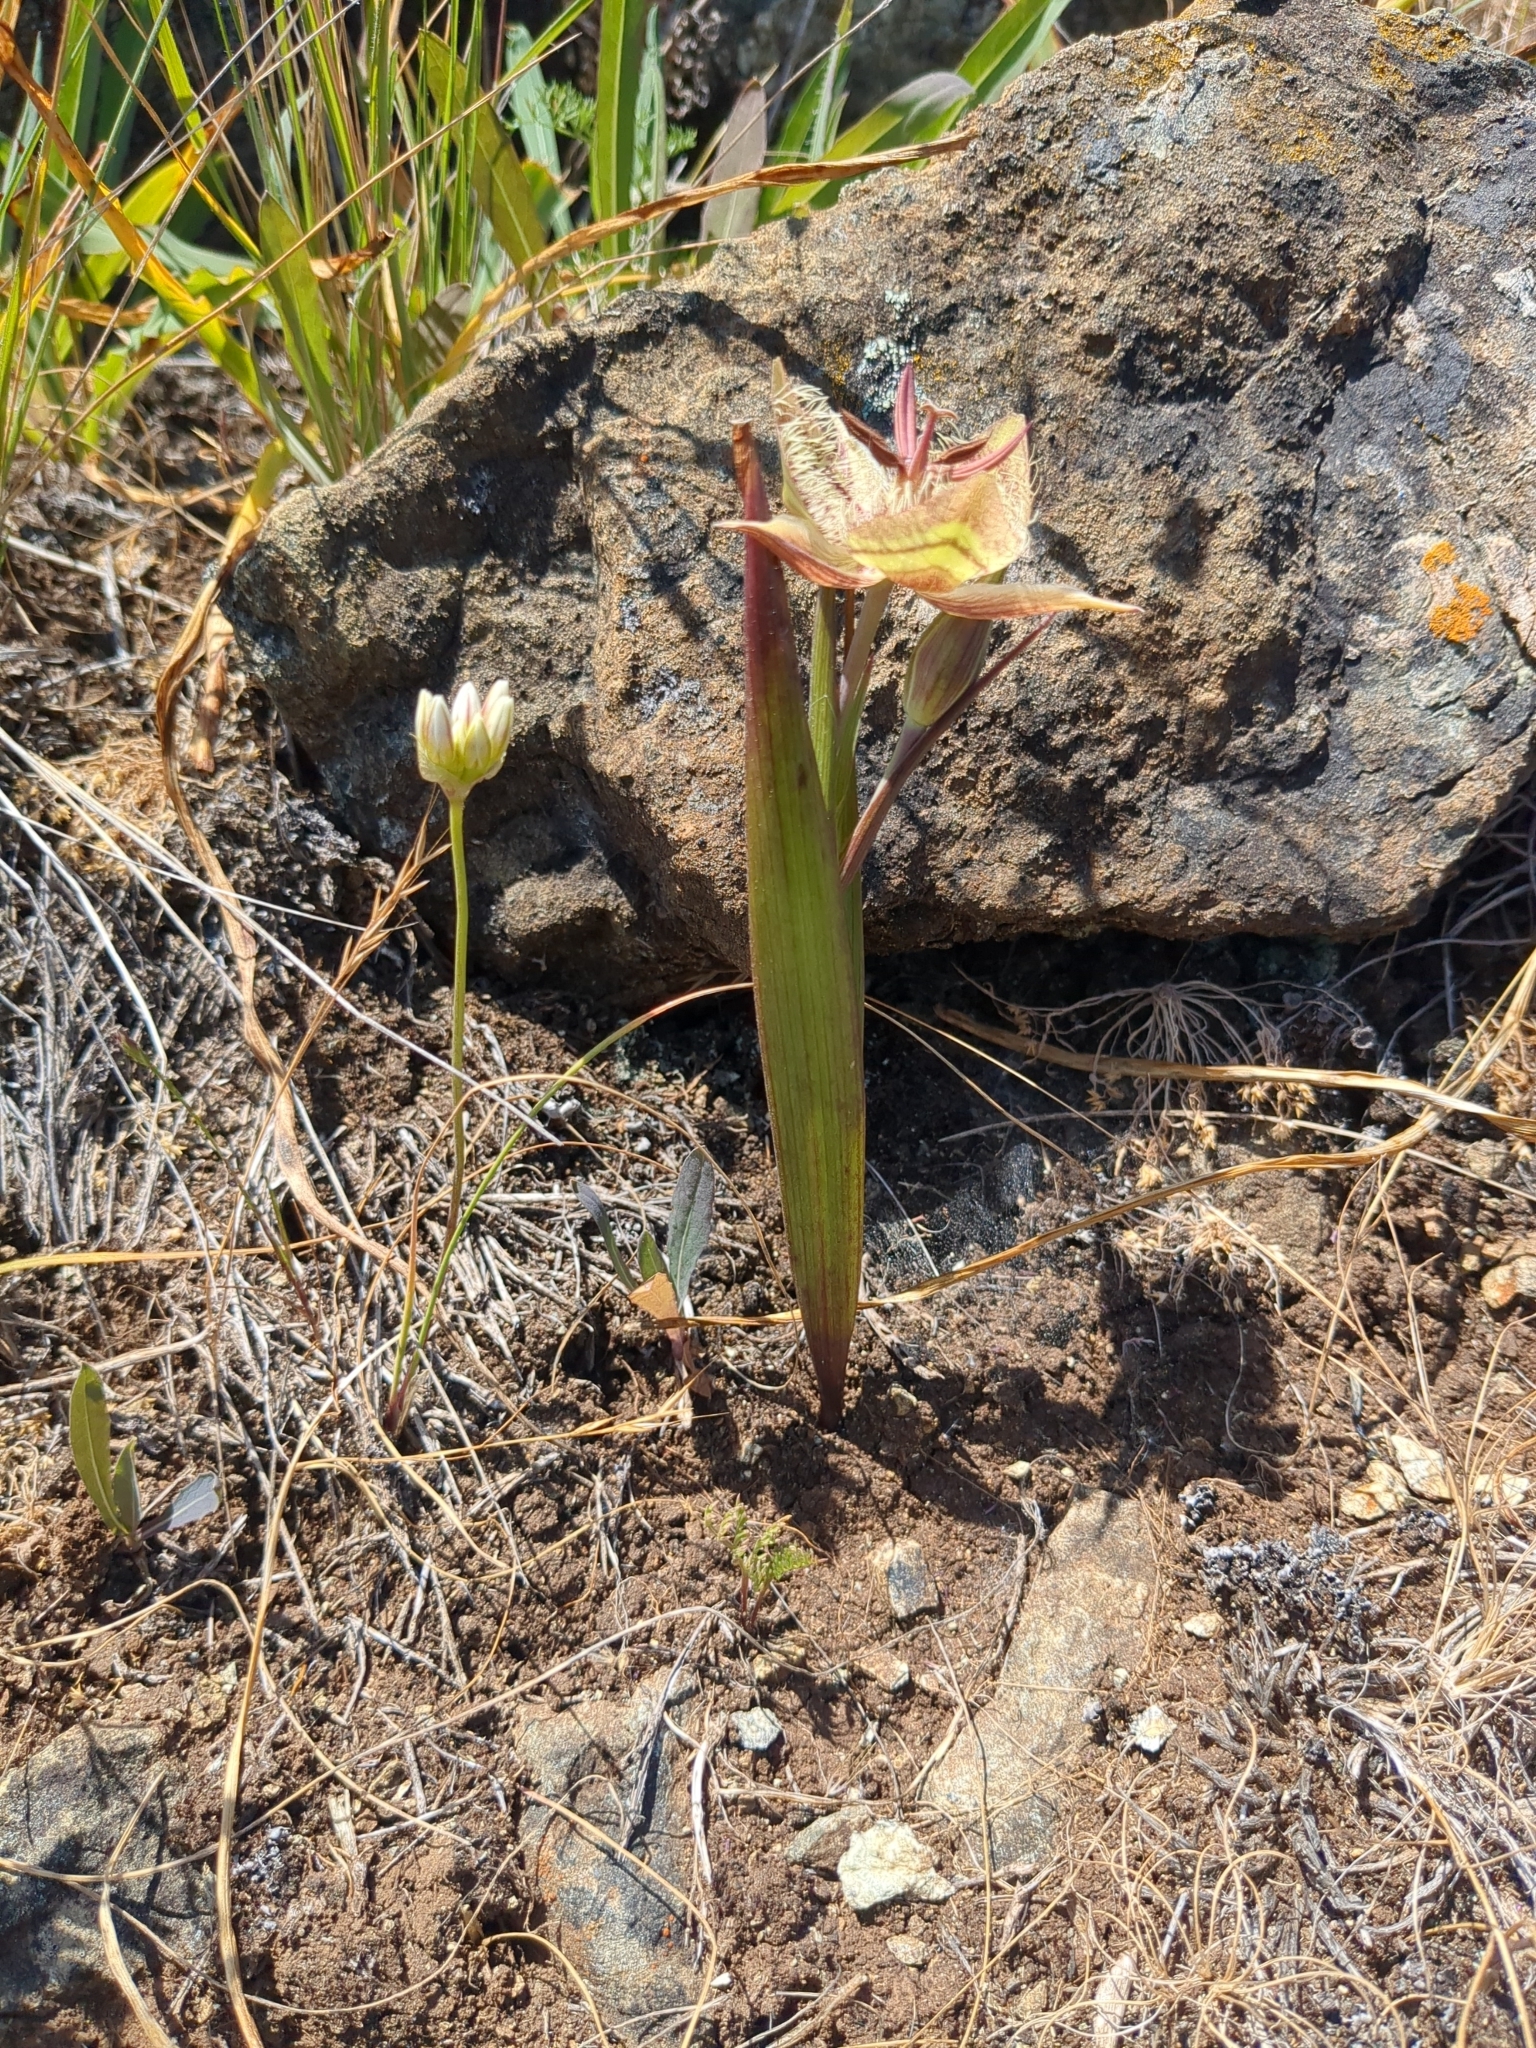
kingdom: Plantae
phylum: Tracheophyta
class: Liliopsida
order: Liliales
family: Liliaceae
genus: Calochortus
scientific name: Calochortus tiburonensis
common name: Tiburon mariposa-lily
